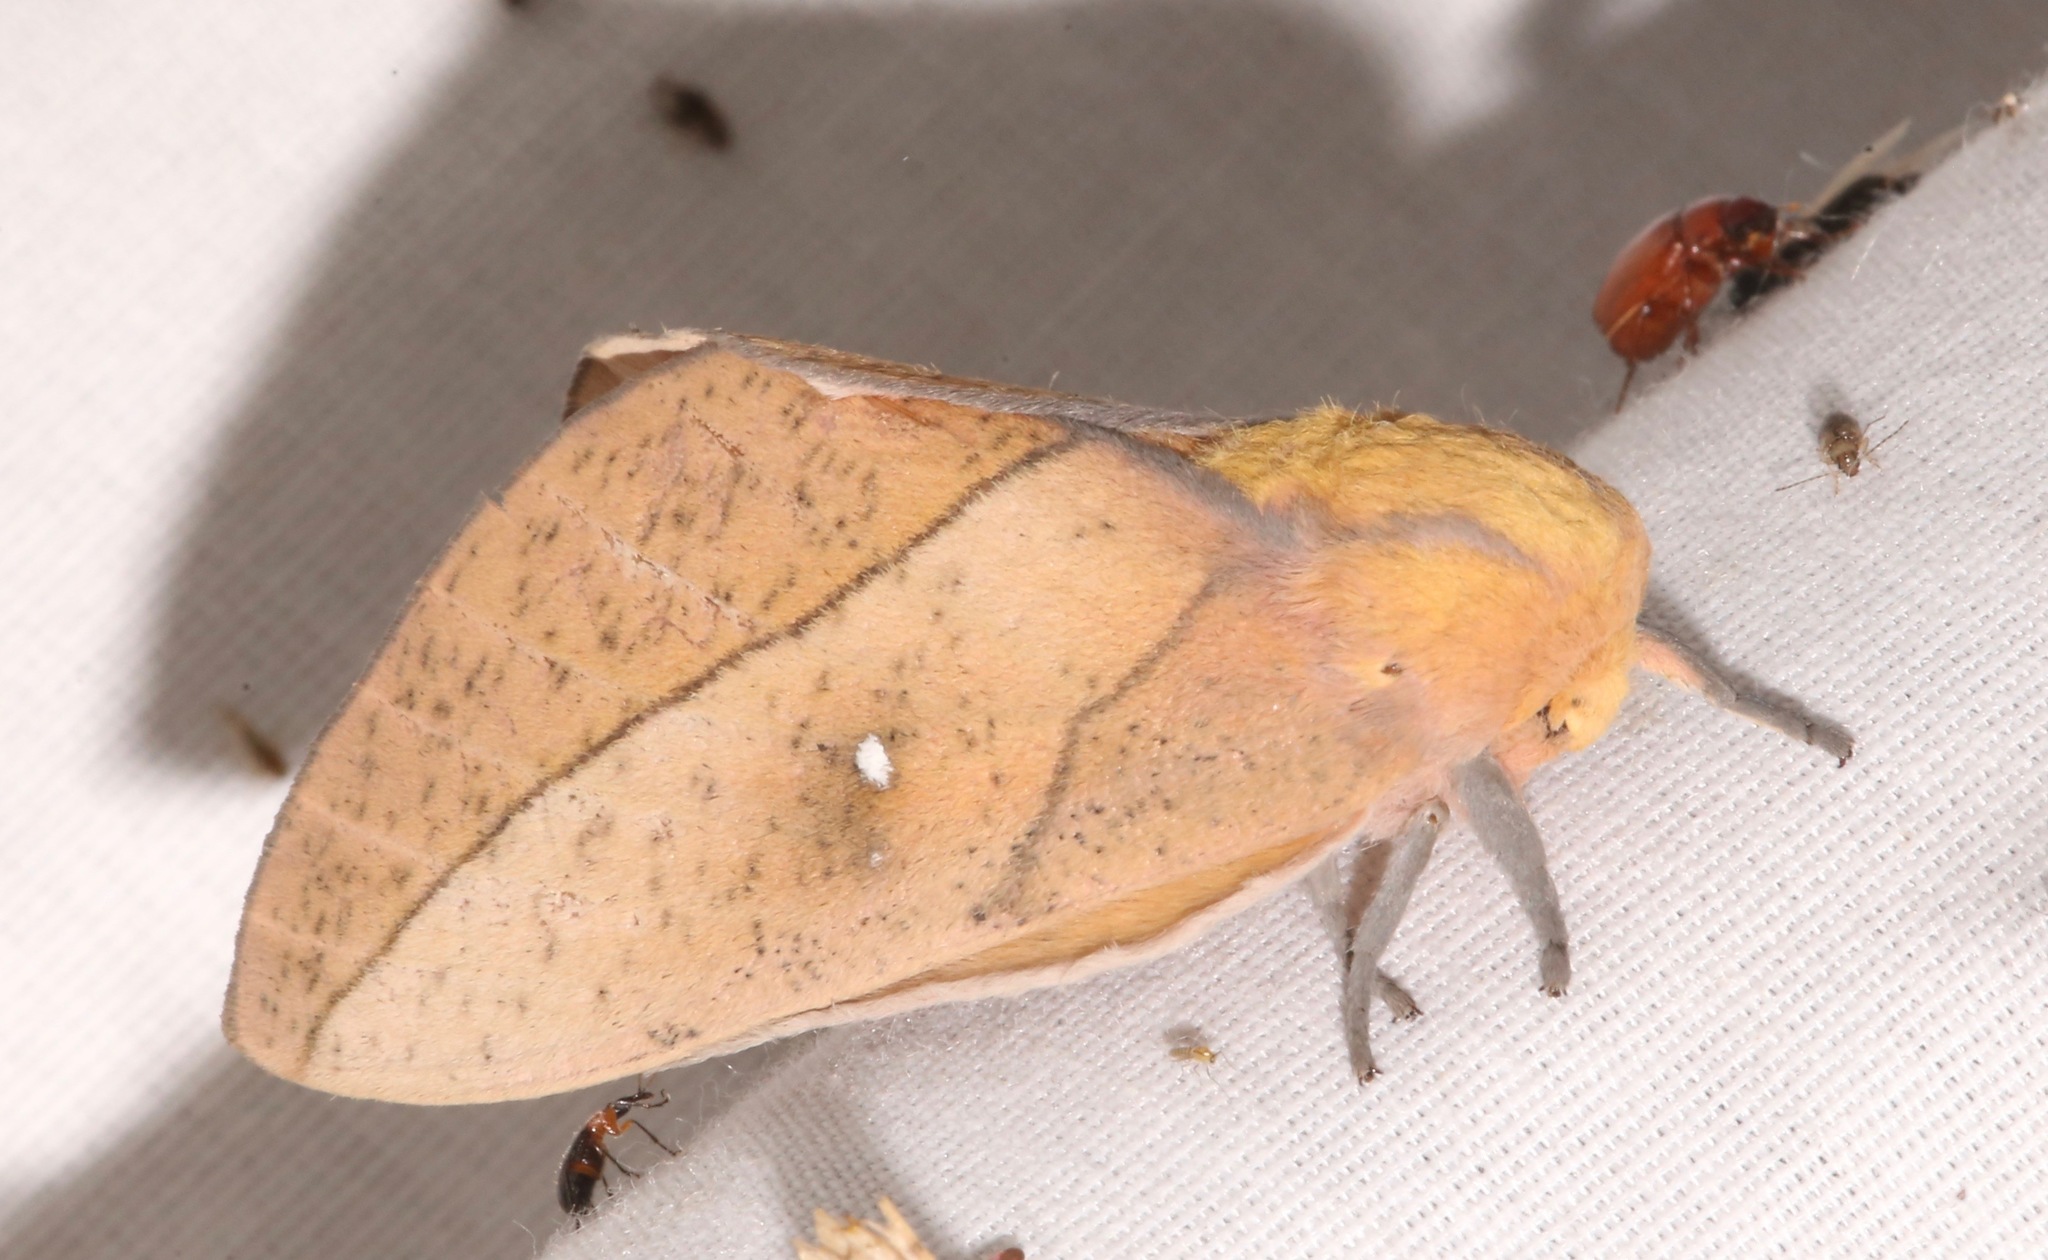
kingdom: Animalia
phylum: Arthropoda
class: Insecta
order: Lepidoptera
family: Saturniidae
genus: Syssphinx
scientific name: Syssphinx montana
